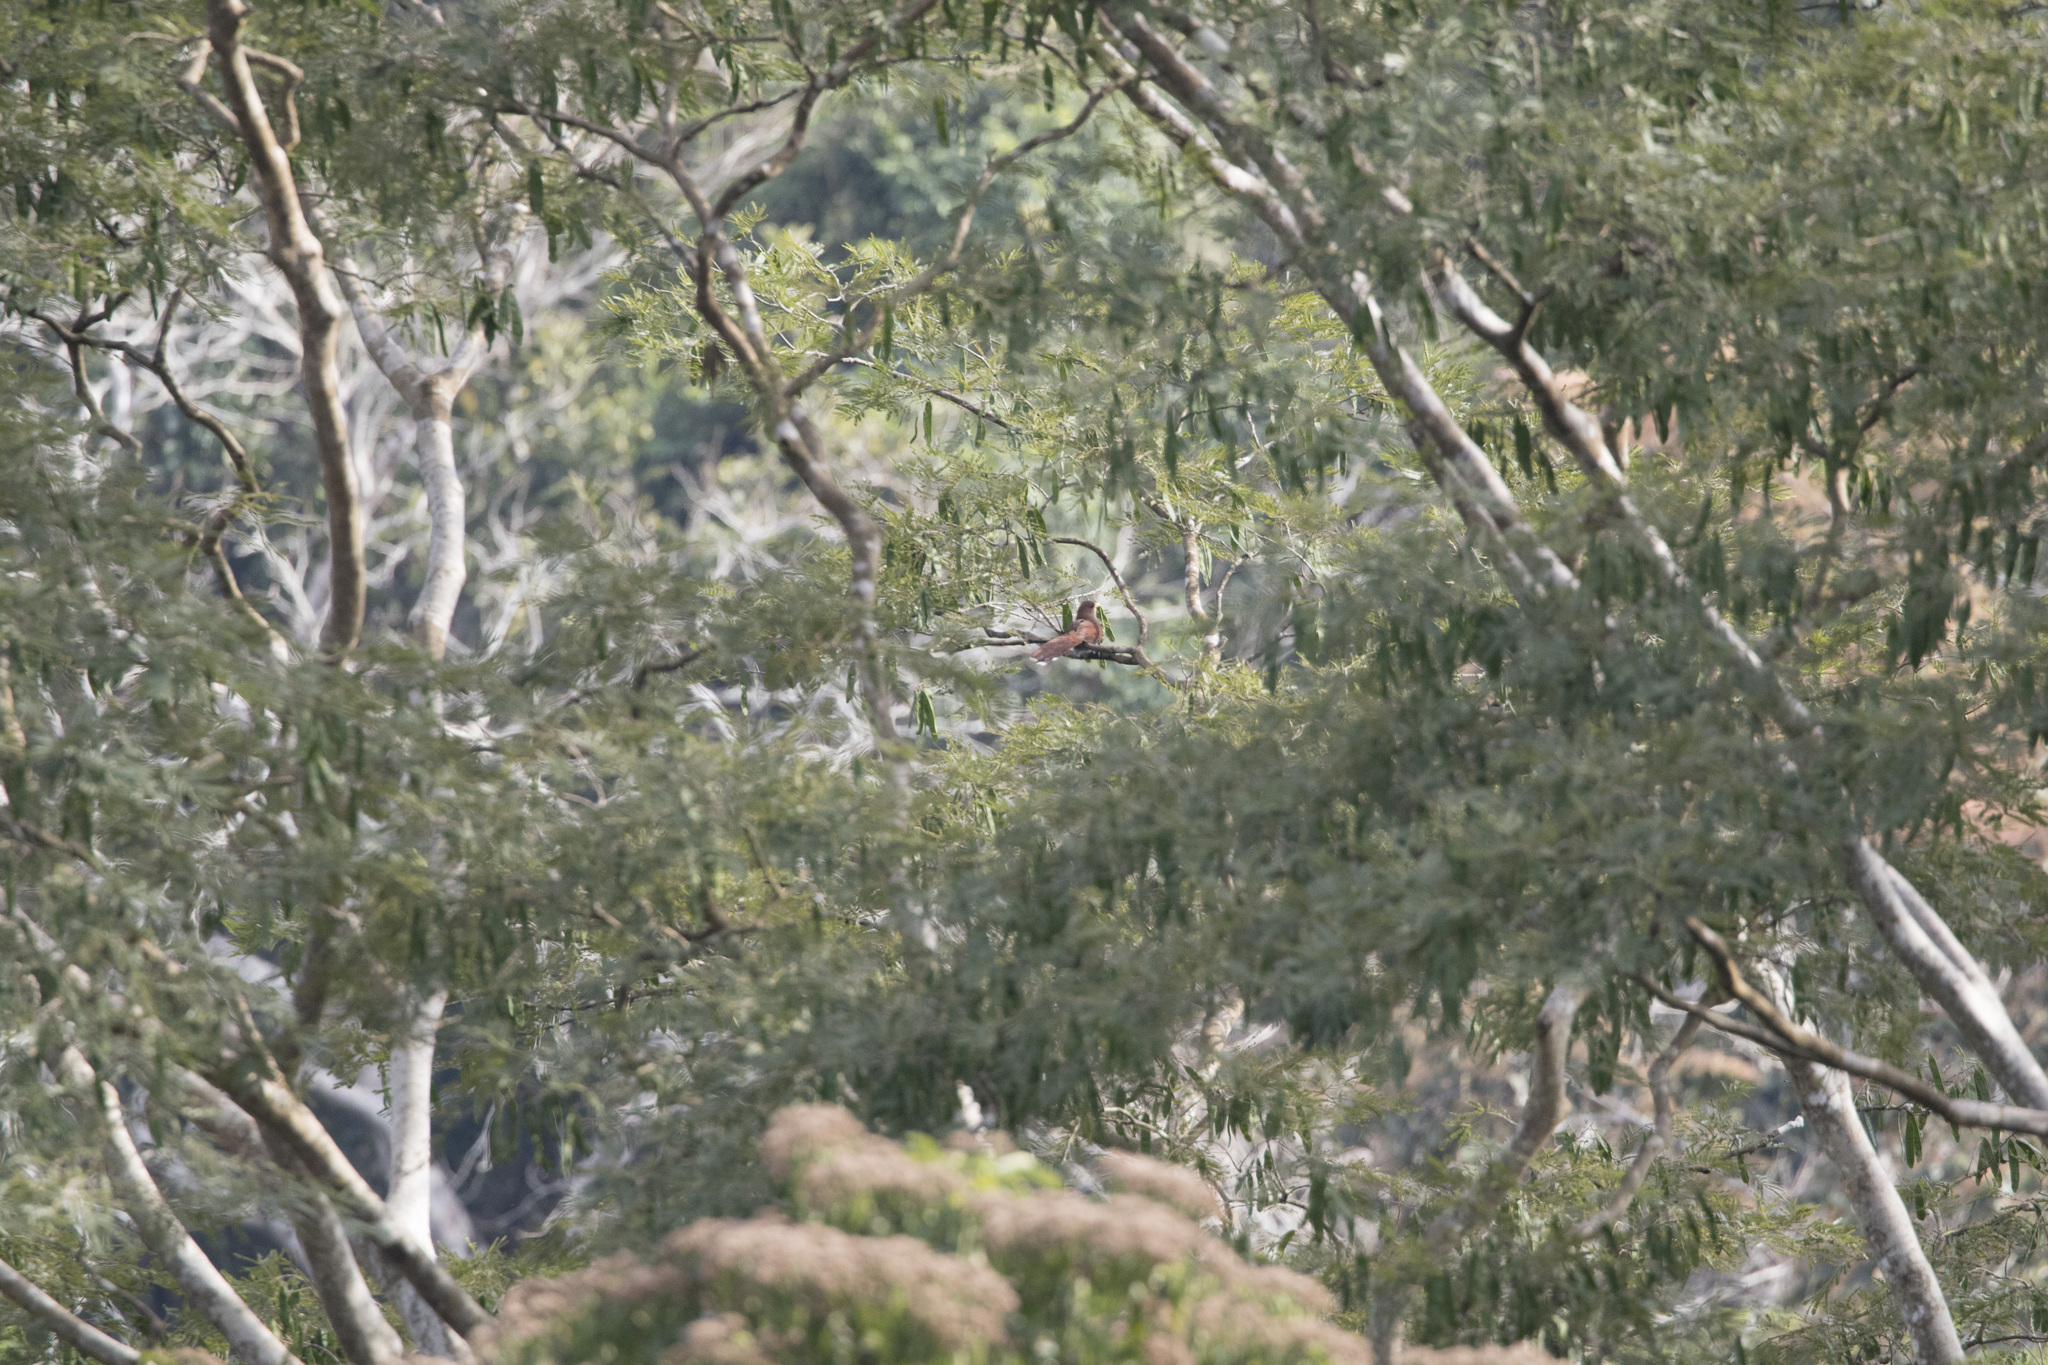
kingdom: Animalia
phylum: Chordata
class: Aves
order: Cuculiformes
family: Cuculidae
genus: Piaya
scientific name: Piaya cayana
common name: Squirrel cuckoo
